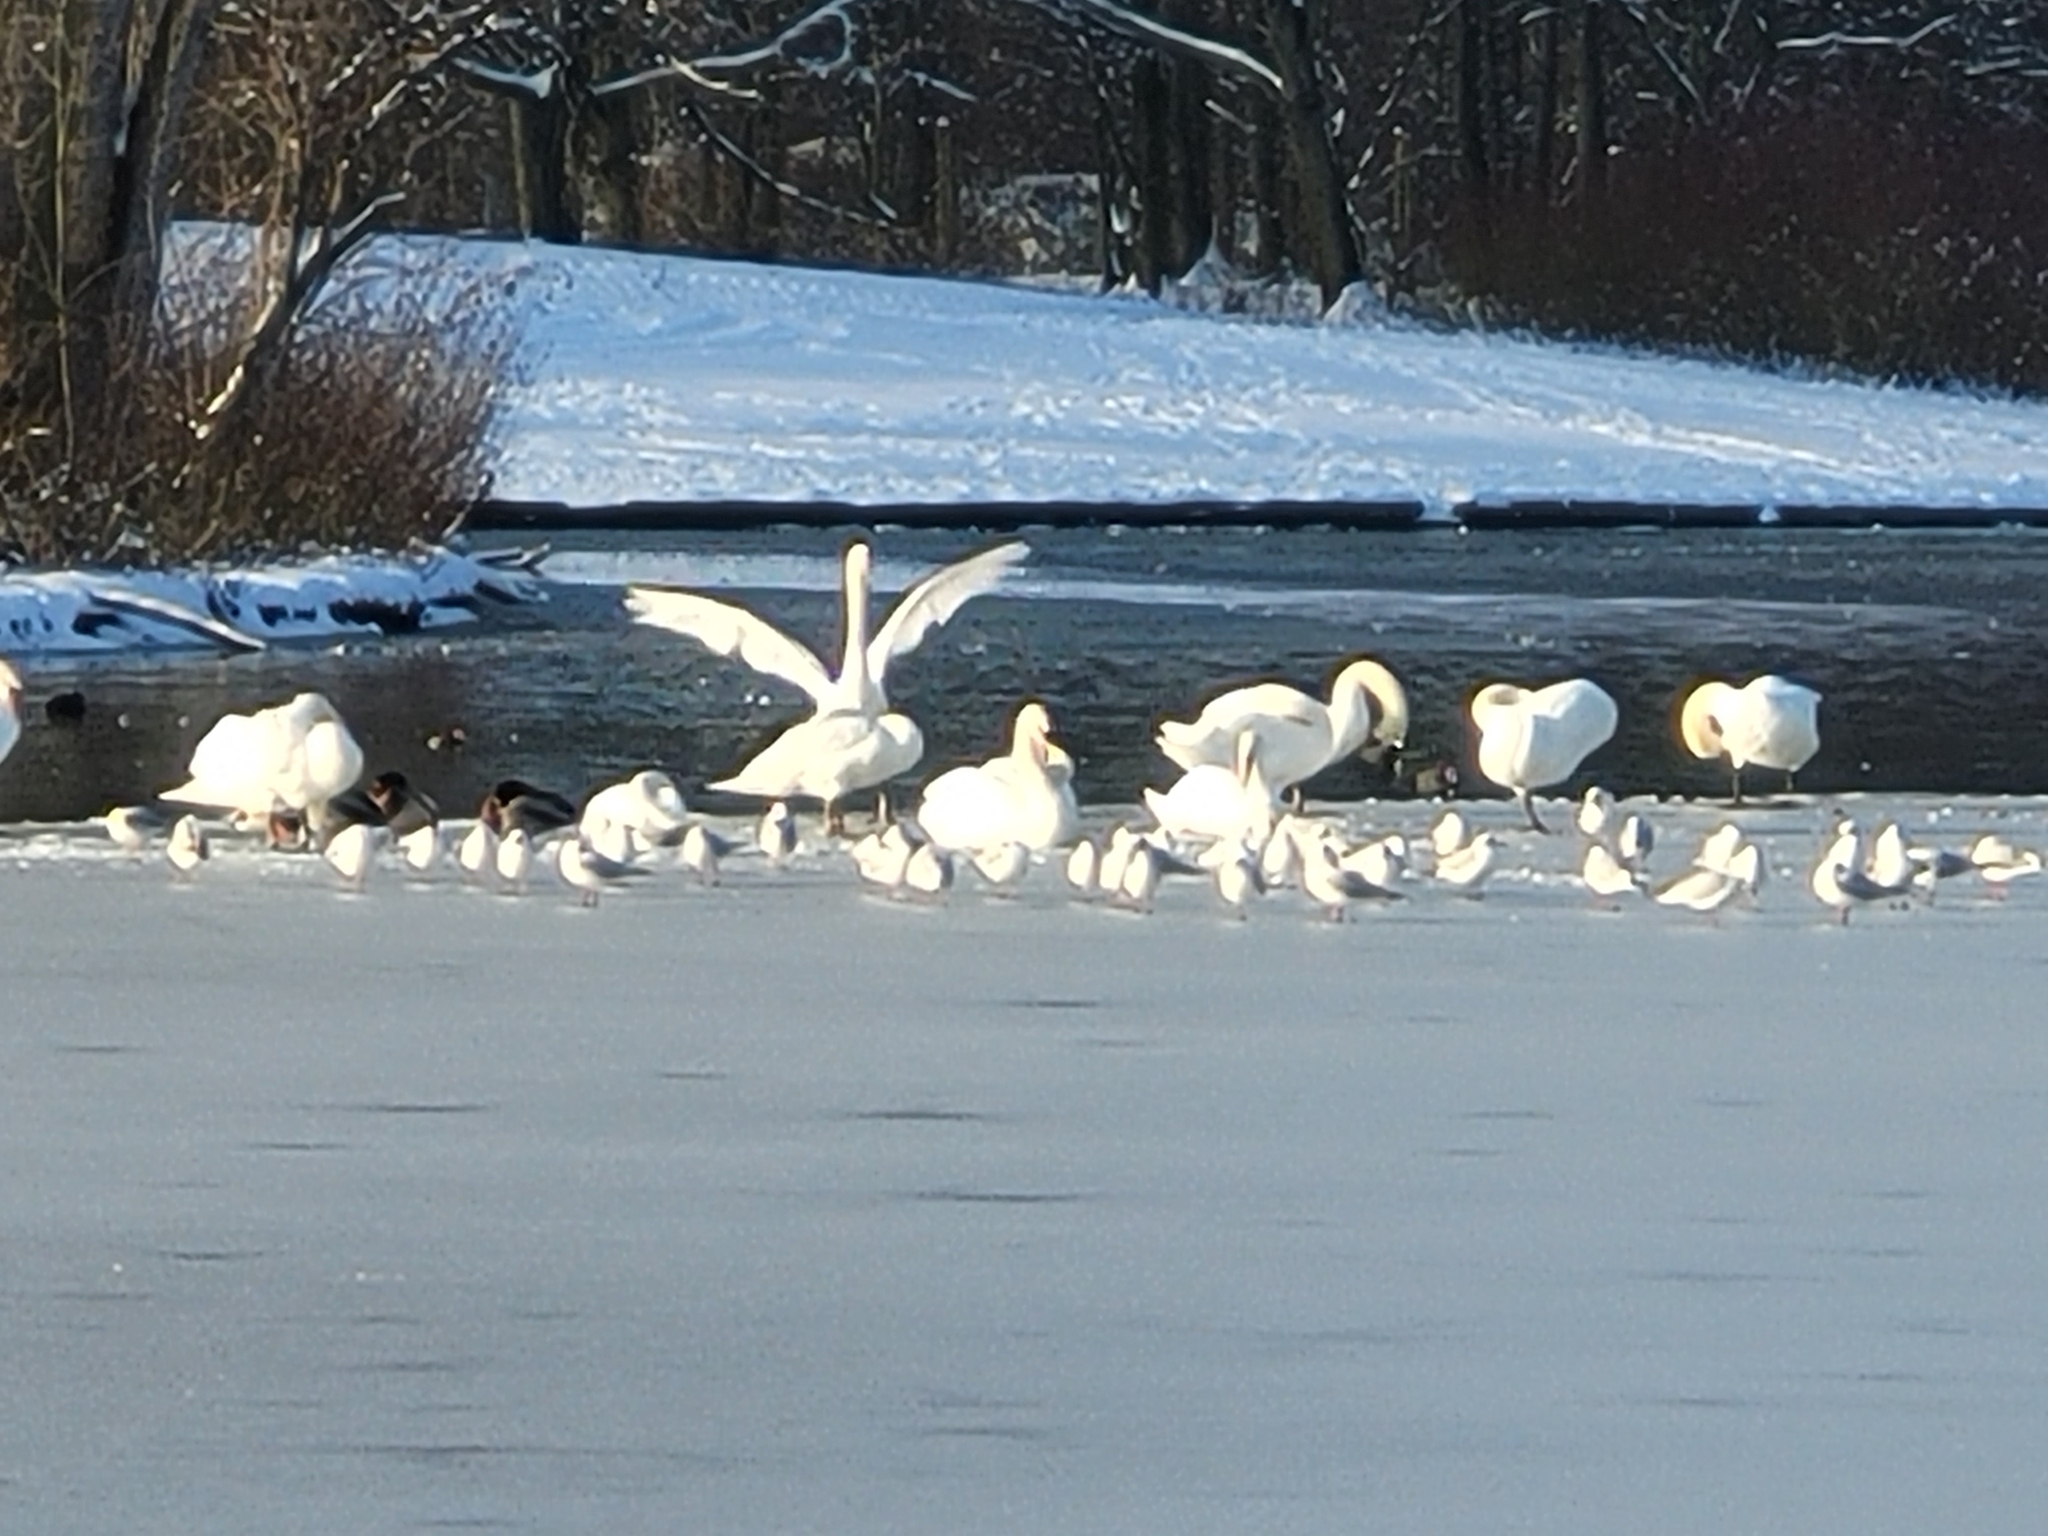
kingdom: Animalia
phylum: Chordata
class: Aves
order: Anseriformes
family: Anatidae
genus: Cygnus
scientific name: Cygnus olor
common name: Mute swan
